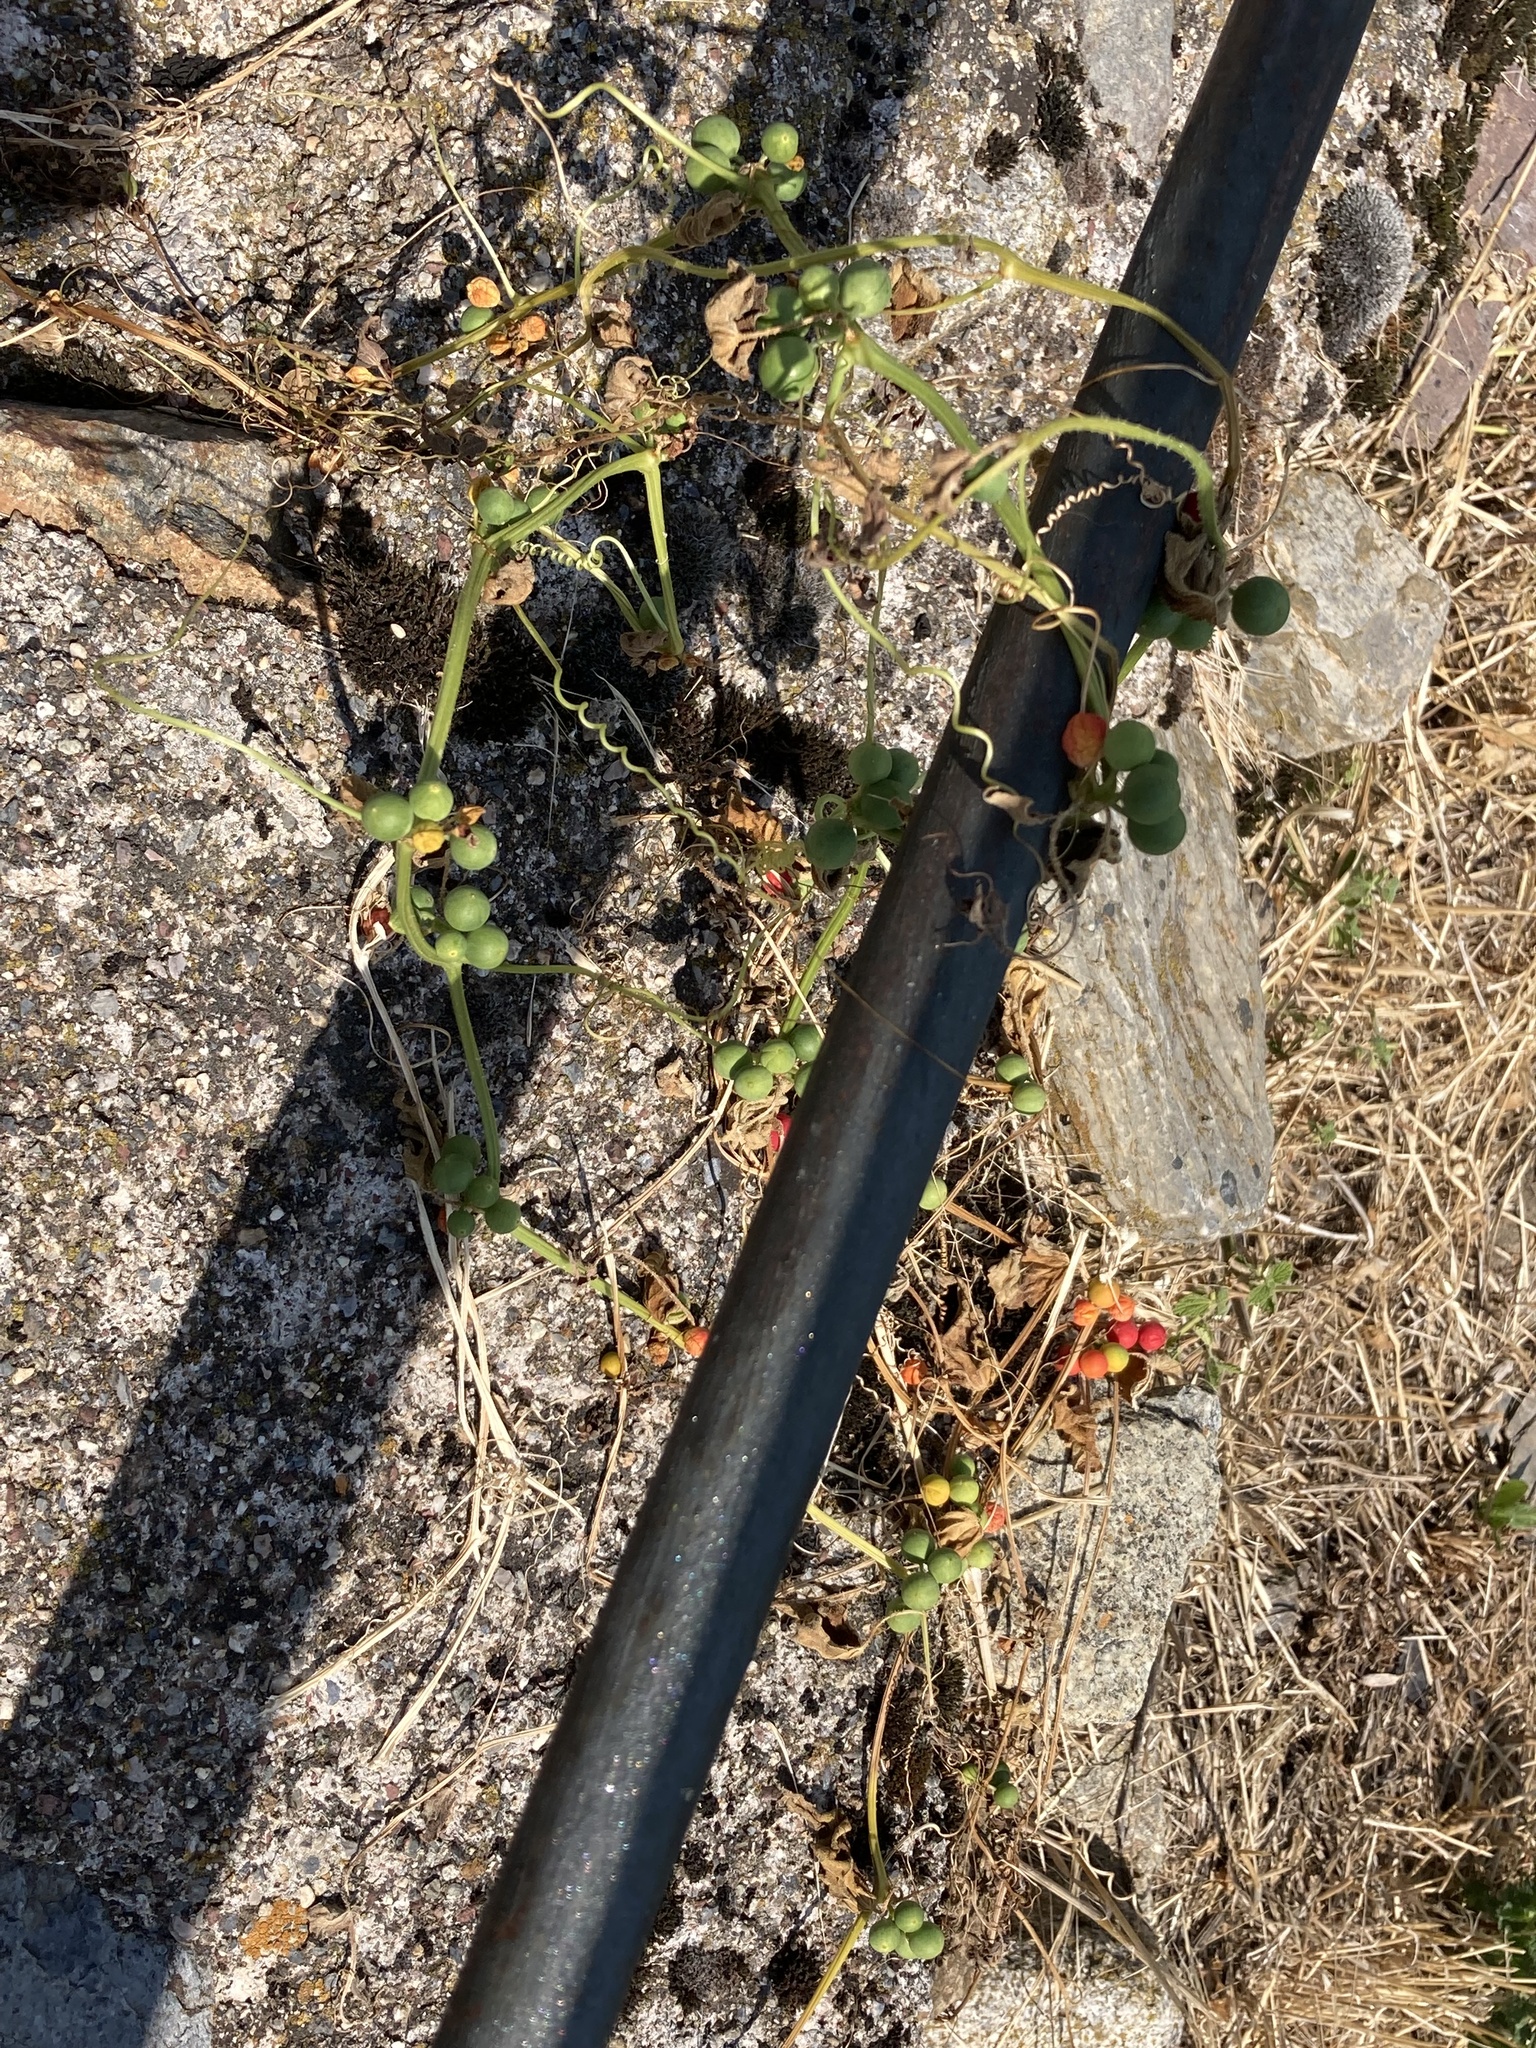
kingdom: Plantae
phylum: Tracheophyta
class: Magnoliopsida
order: Cucurbitales
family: Cucurbitaceae
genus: Bryonia
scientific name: Bryonia cretica
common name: Cretan bryony
